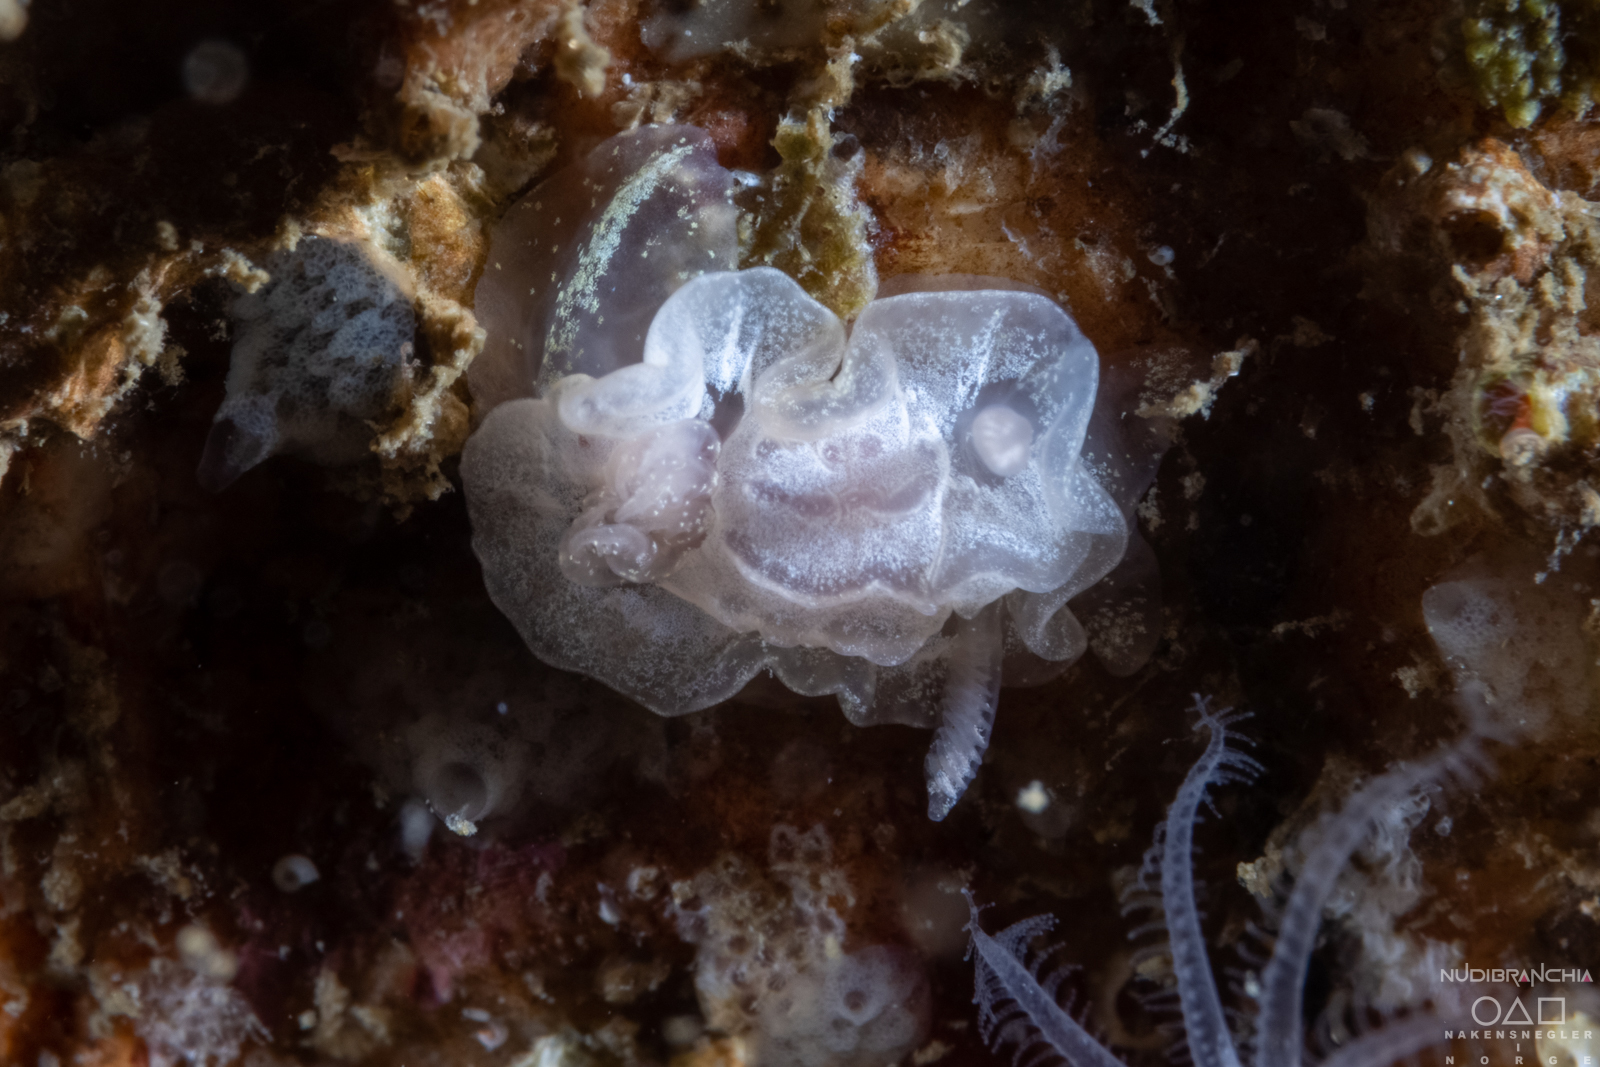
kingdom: Animalia
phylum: Mollusca
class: Gastropoda
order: Nudibranchia
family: Goniodorididae
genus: Okenia
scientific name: Okenia
